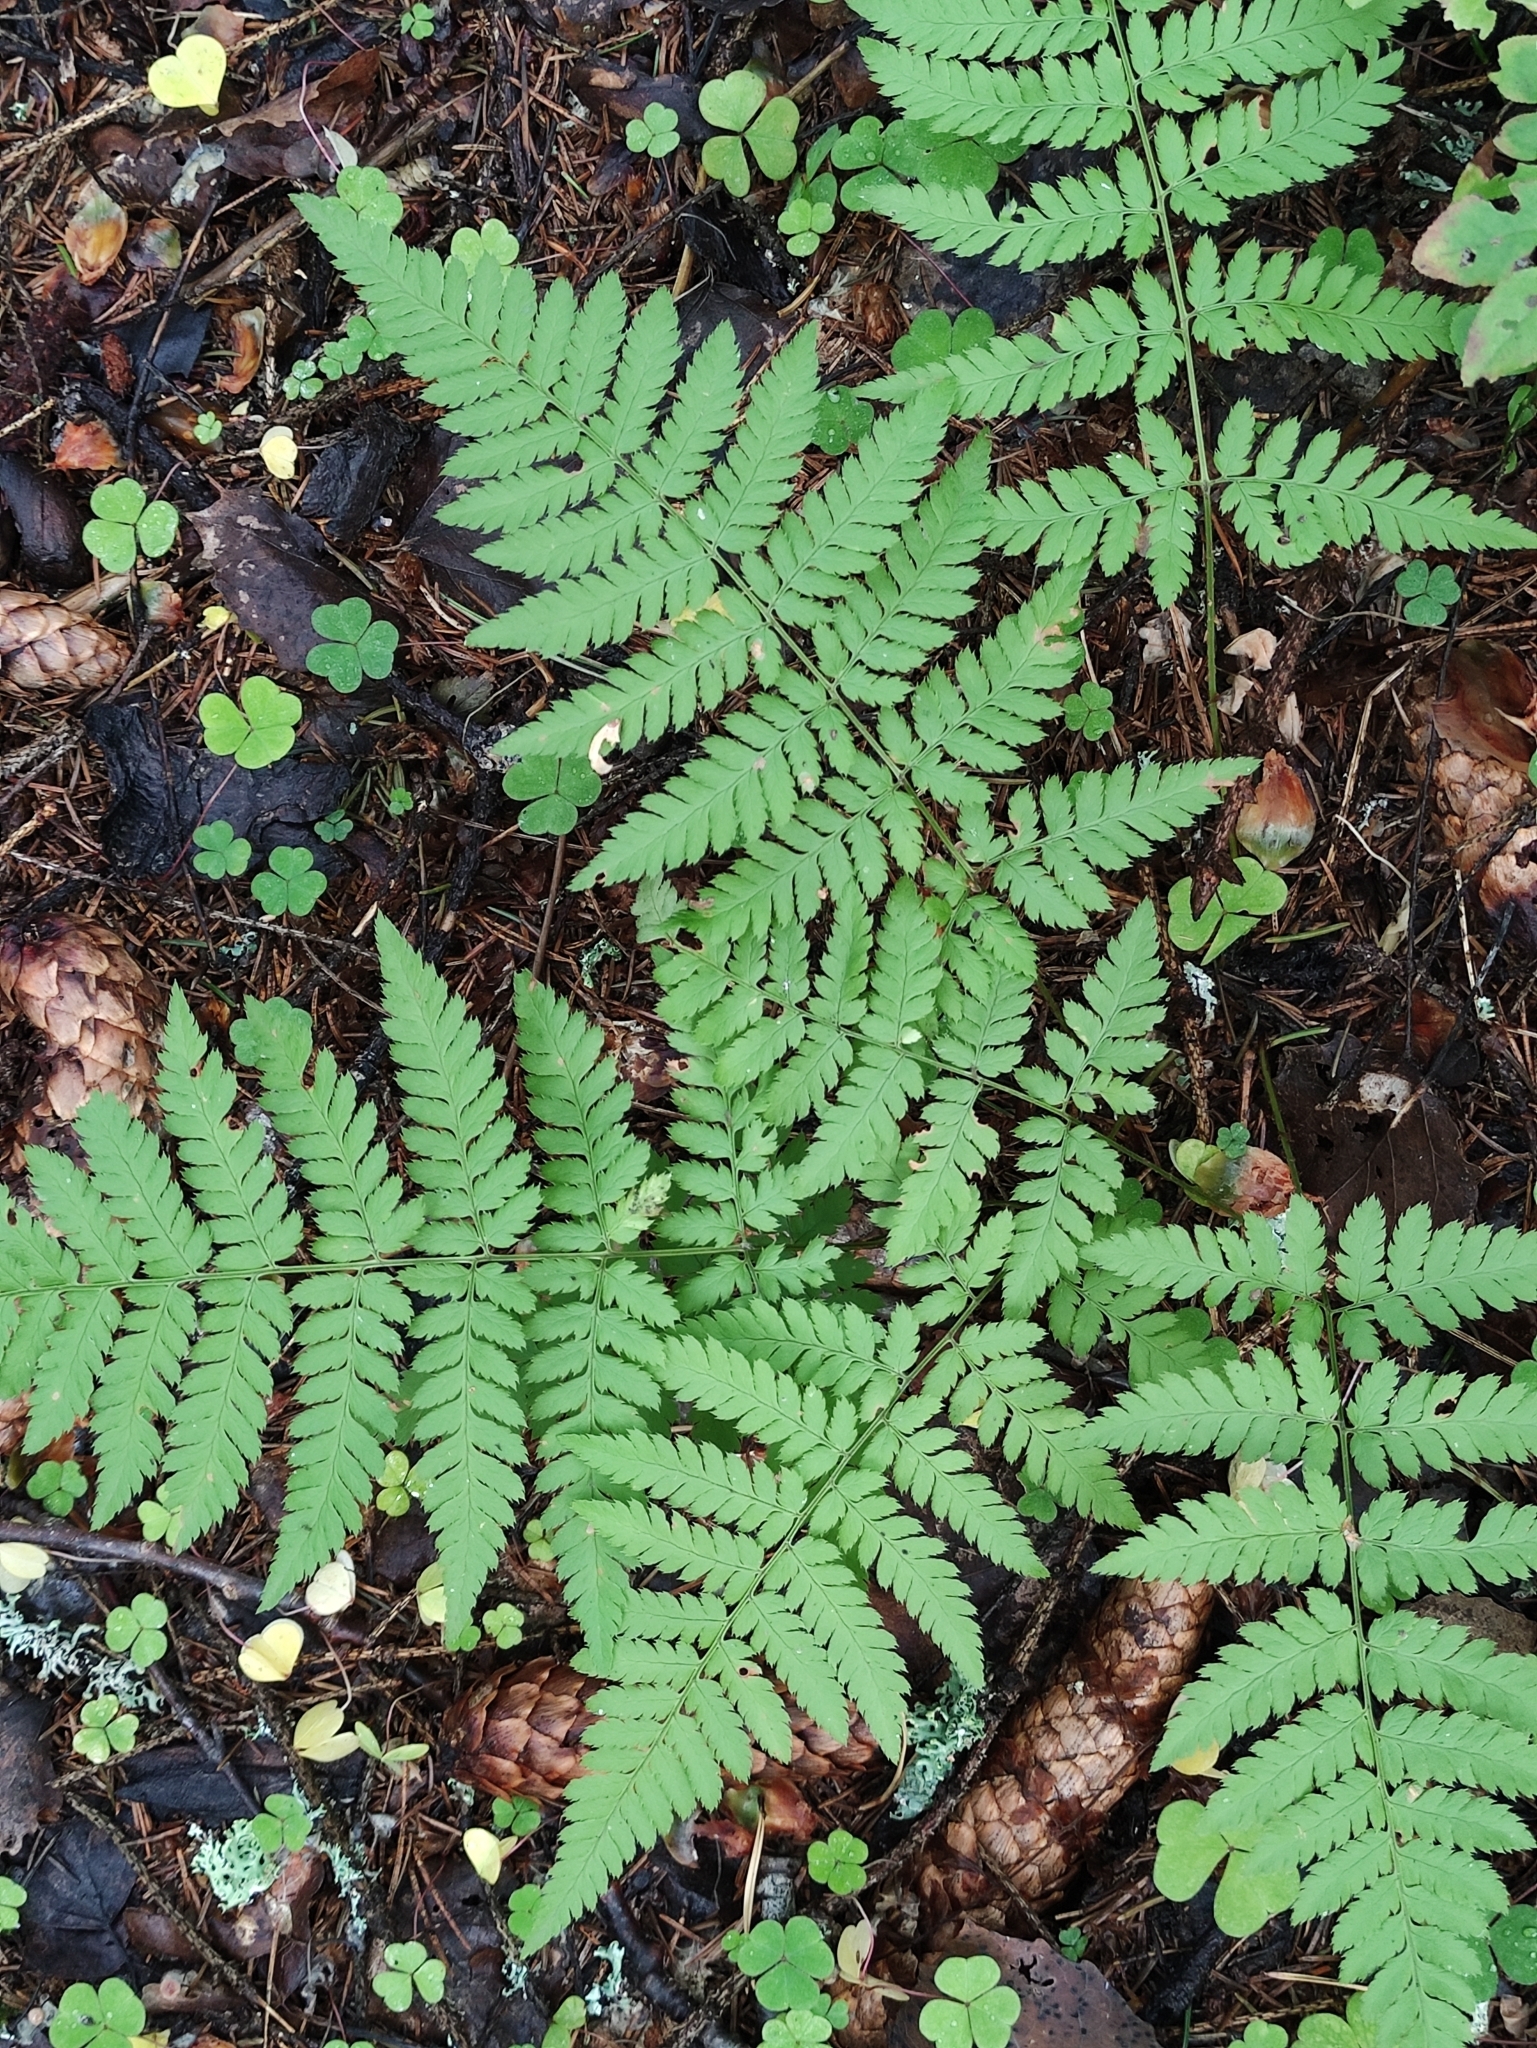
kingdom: Plantae
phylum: Tracheophyta
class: Polypodiopsida
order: Polypodiales
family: Dryopteridaceae
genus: Dryopteris
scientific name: Dryopteris carthusiana
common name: Narrow buckler-fern
